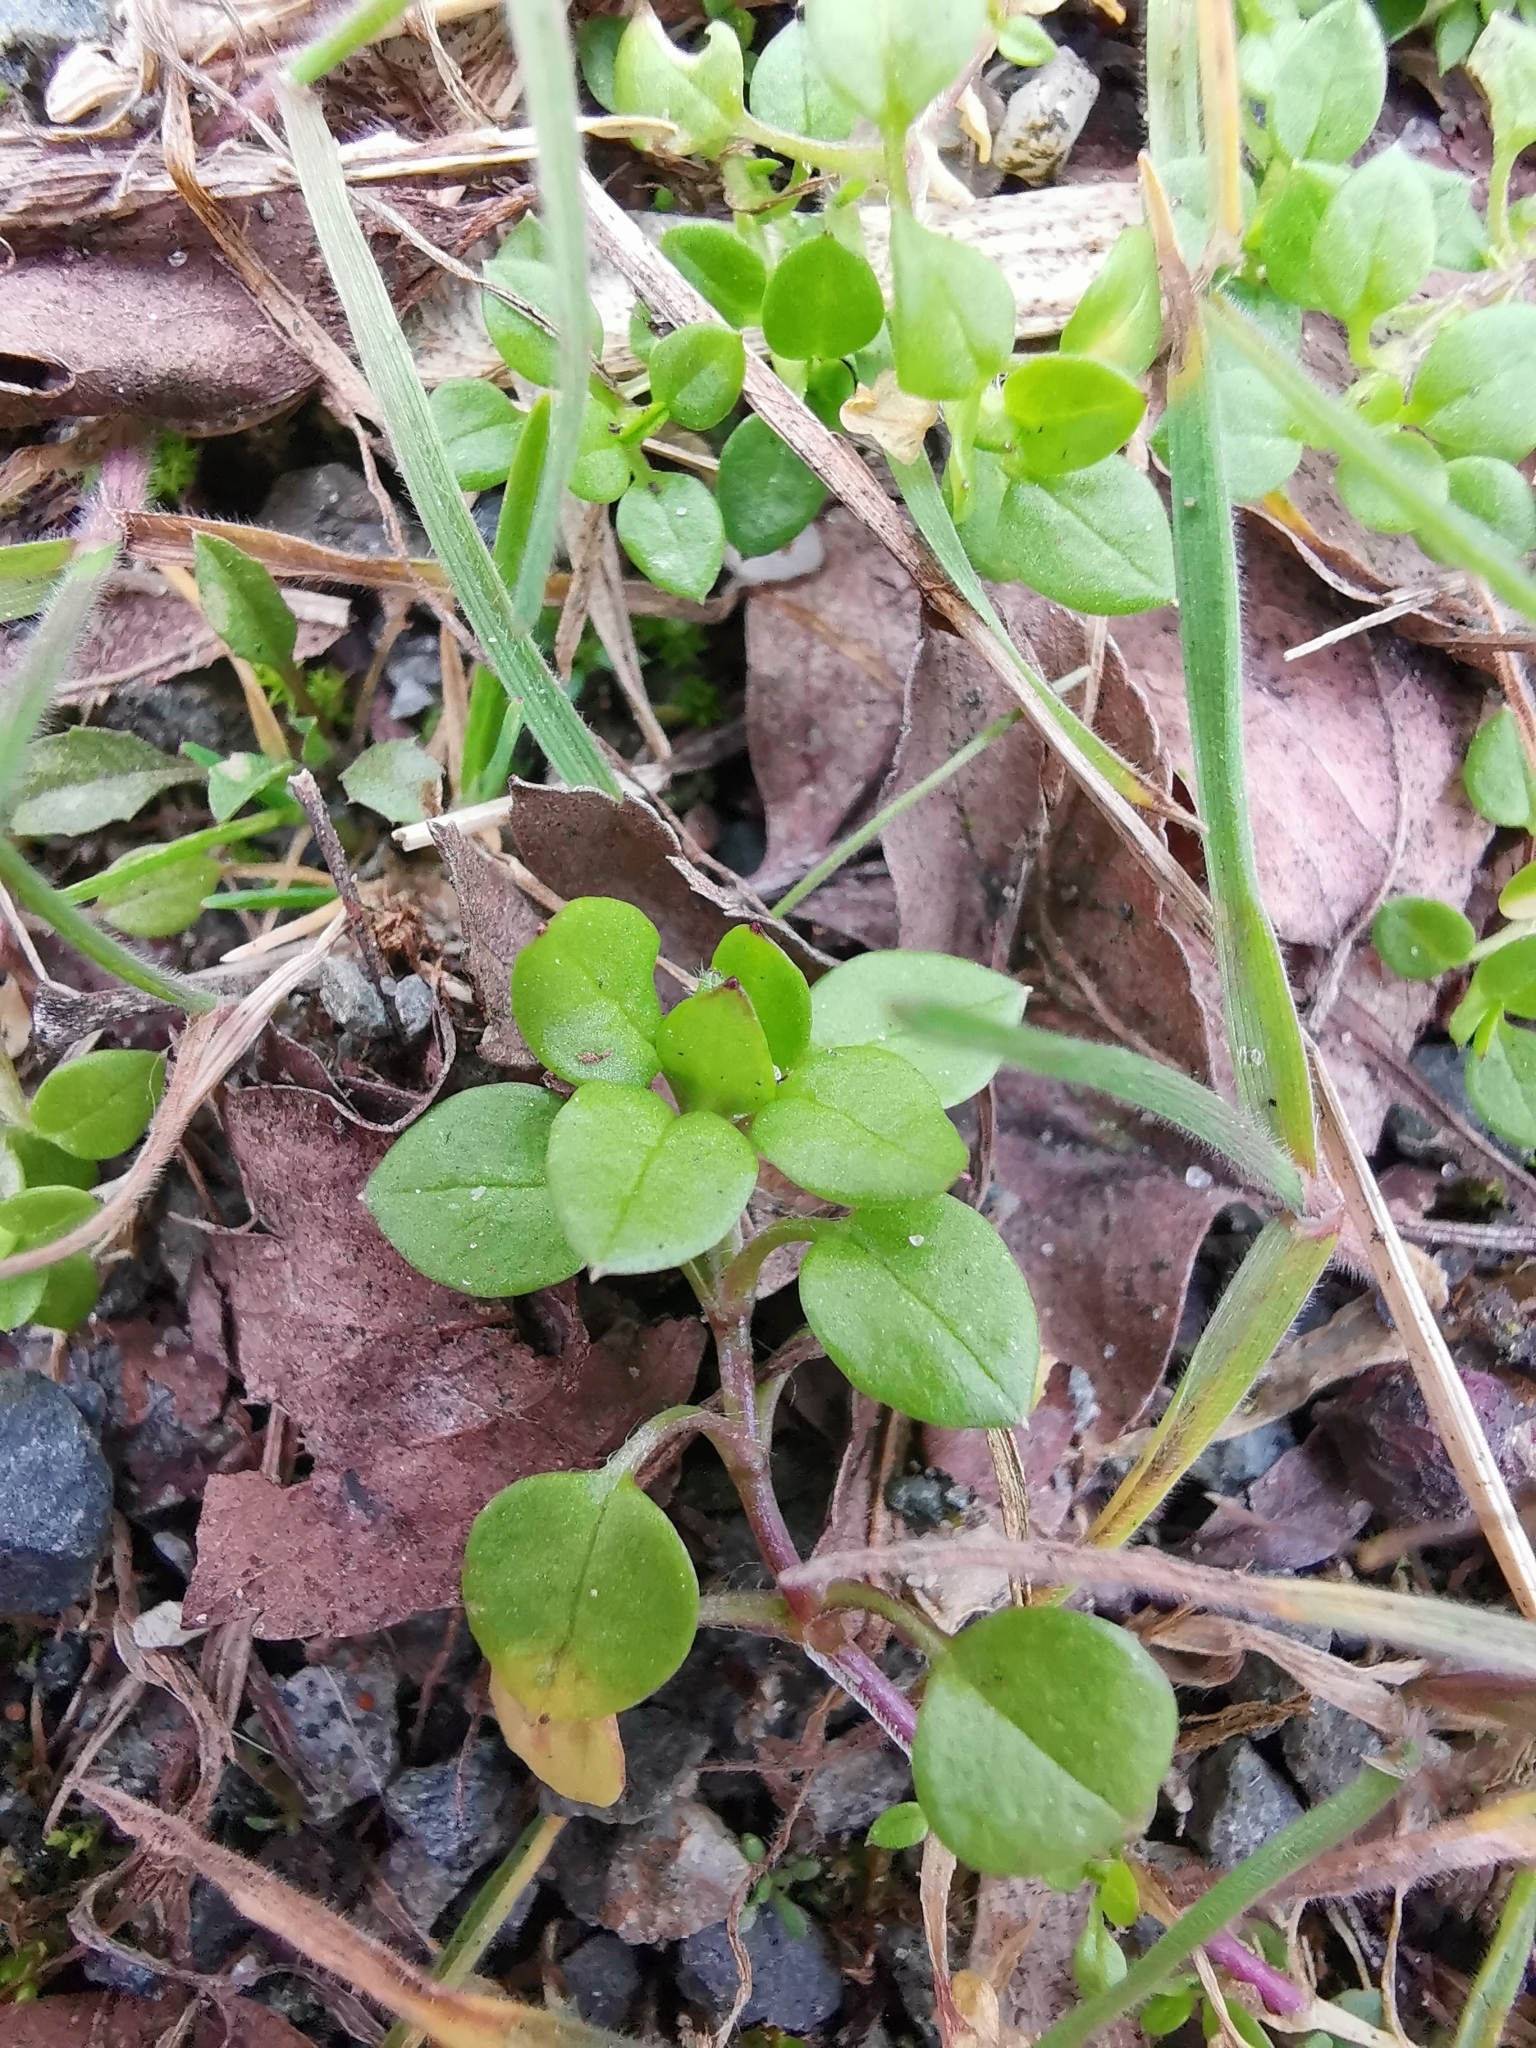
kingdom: Plantae
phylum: Tracheophyta
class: Magnoliopsida
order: Caryophyllales
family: Caryophyllaceae
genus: Stellaria
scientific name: Stellaria media
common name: Common chickweed
